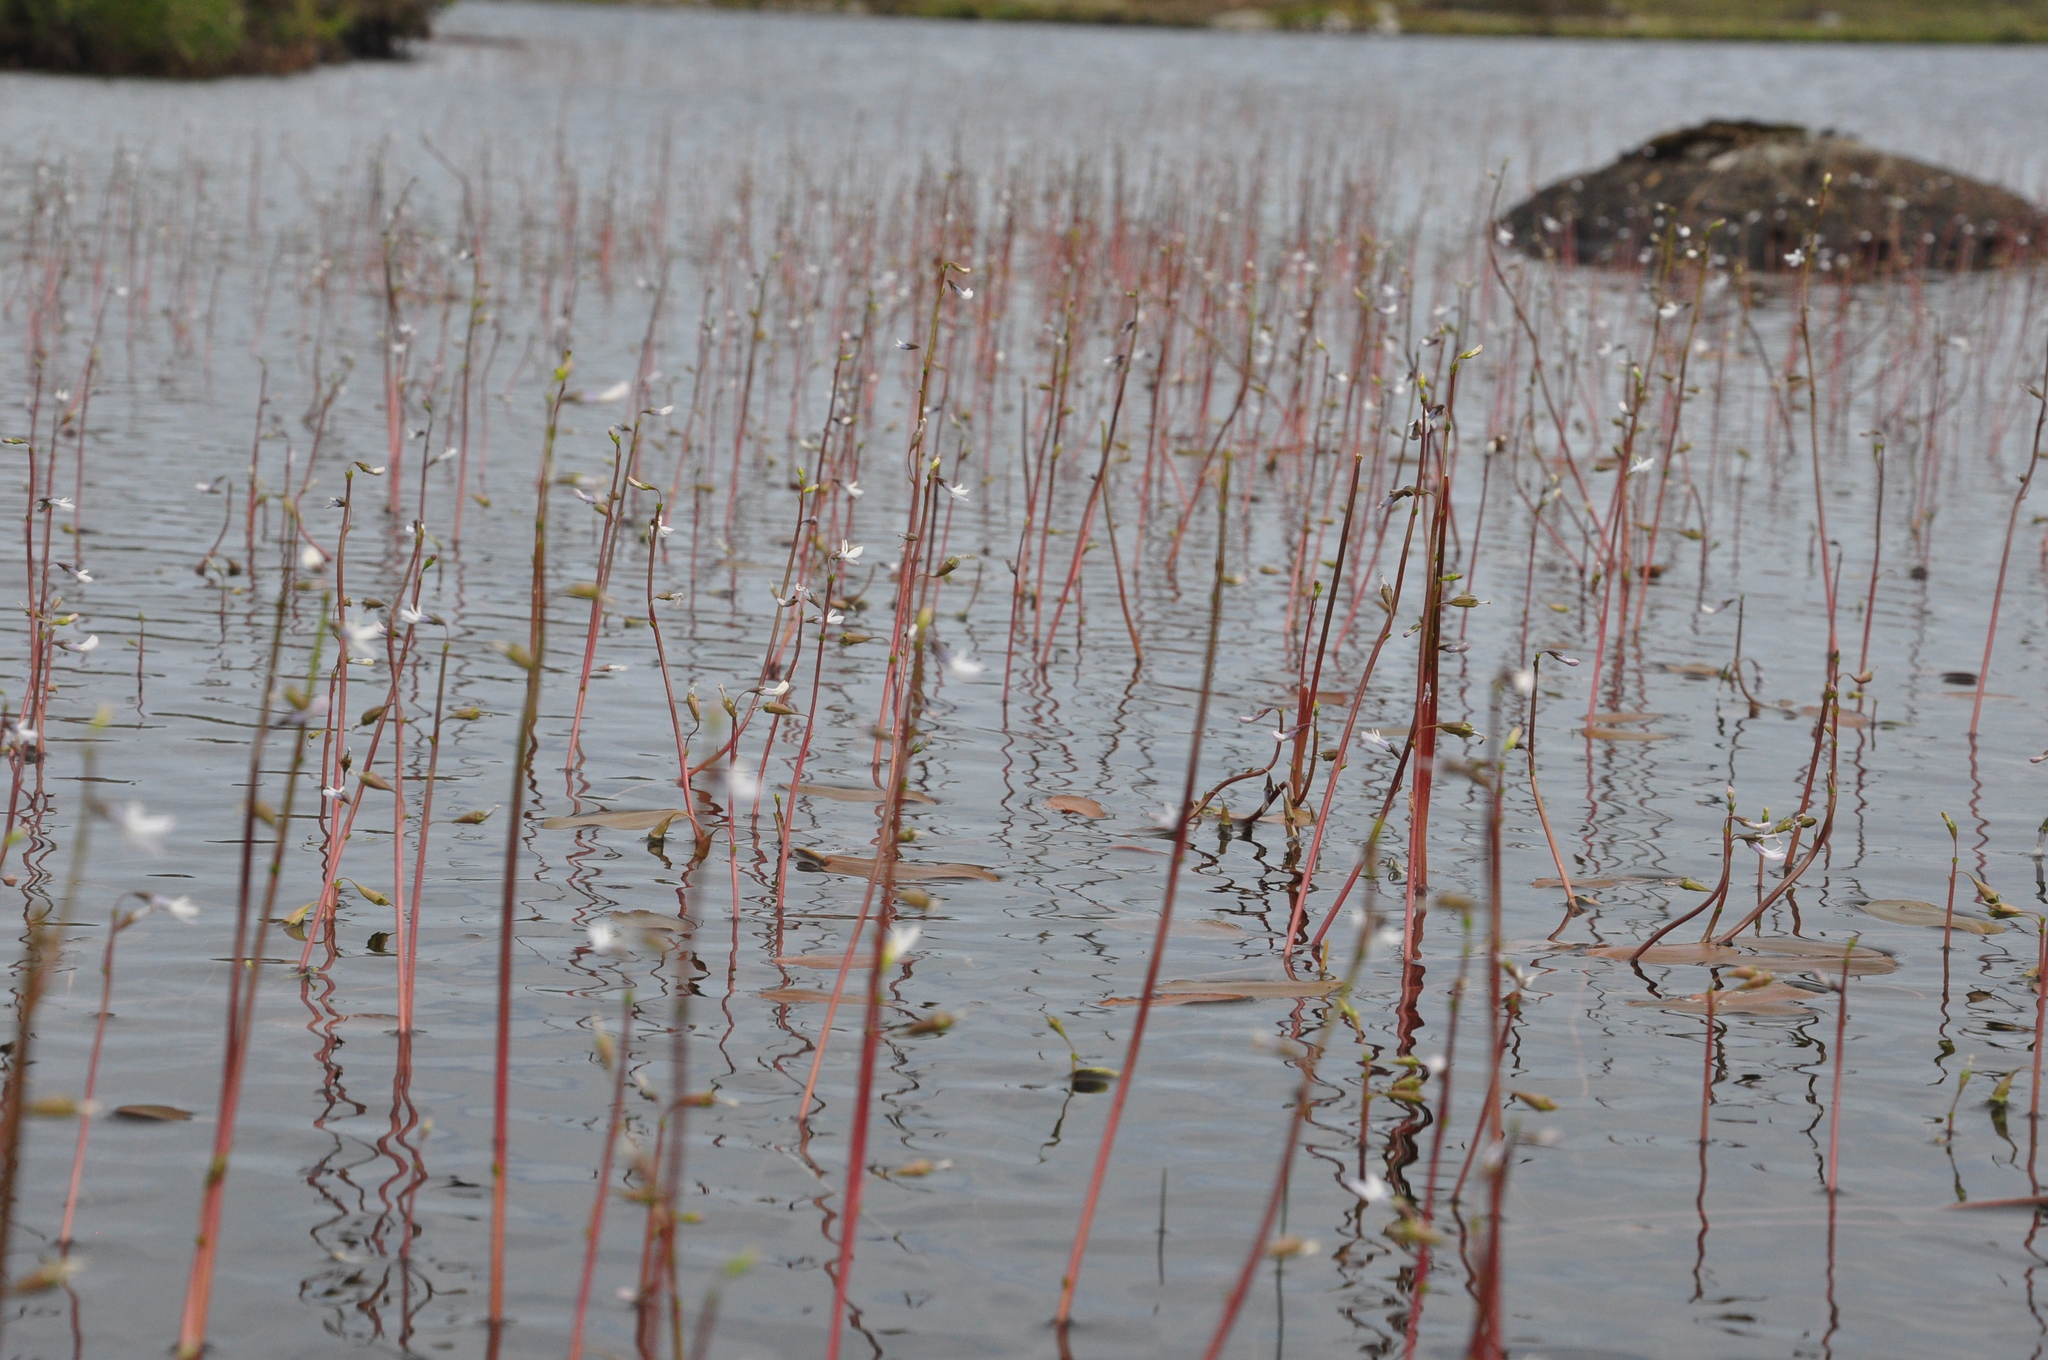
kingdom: Plantae
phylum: Tracheophyta
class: Magnoliopsida
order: Asterales
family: Campanulaceae
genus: Lobelia
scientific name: Lobelia dortmanna
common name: Water lobelia
